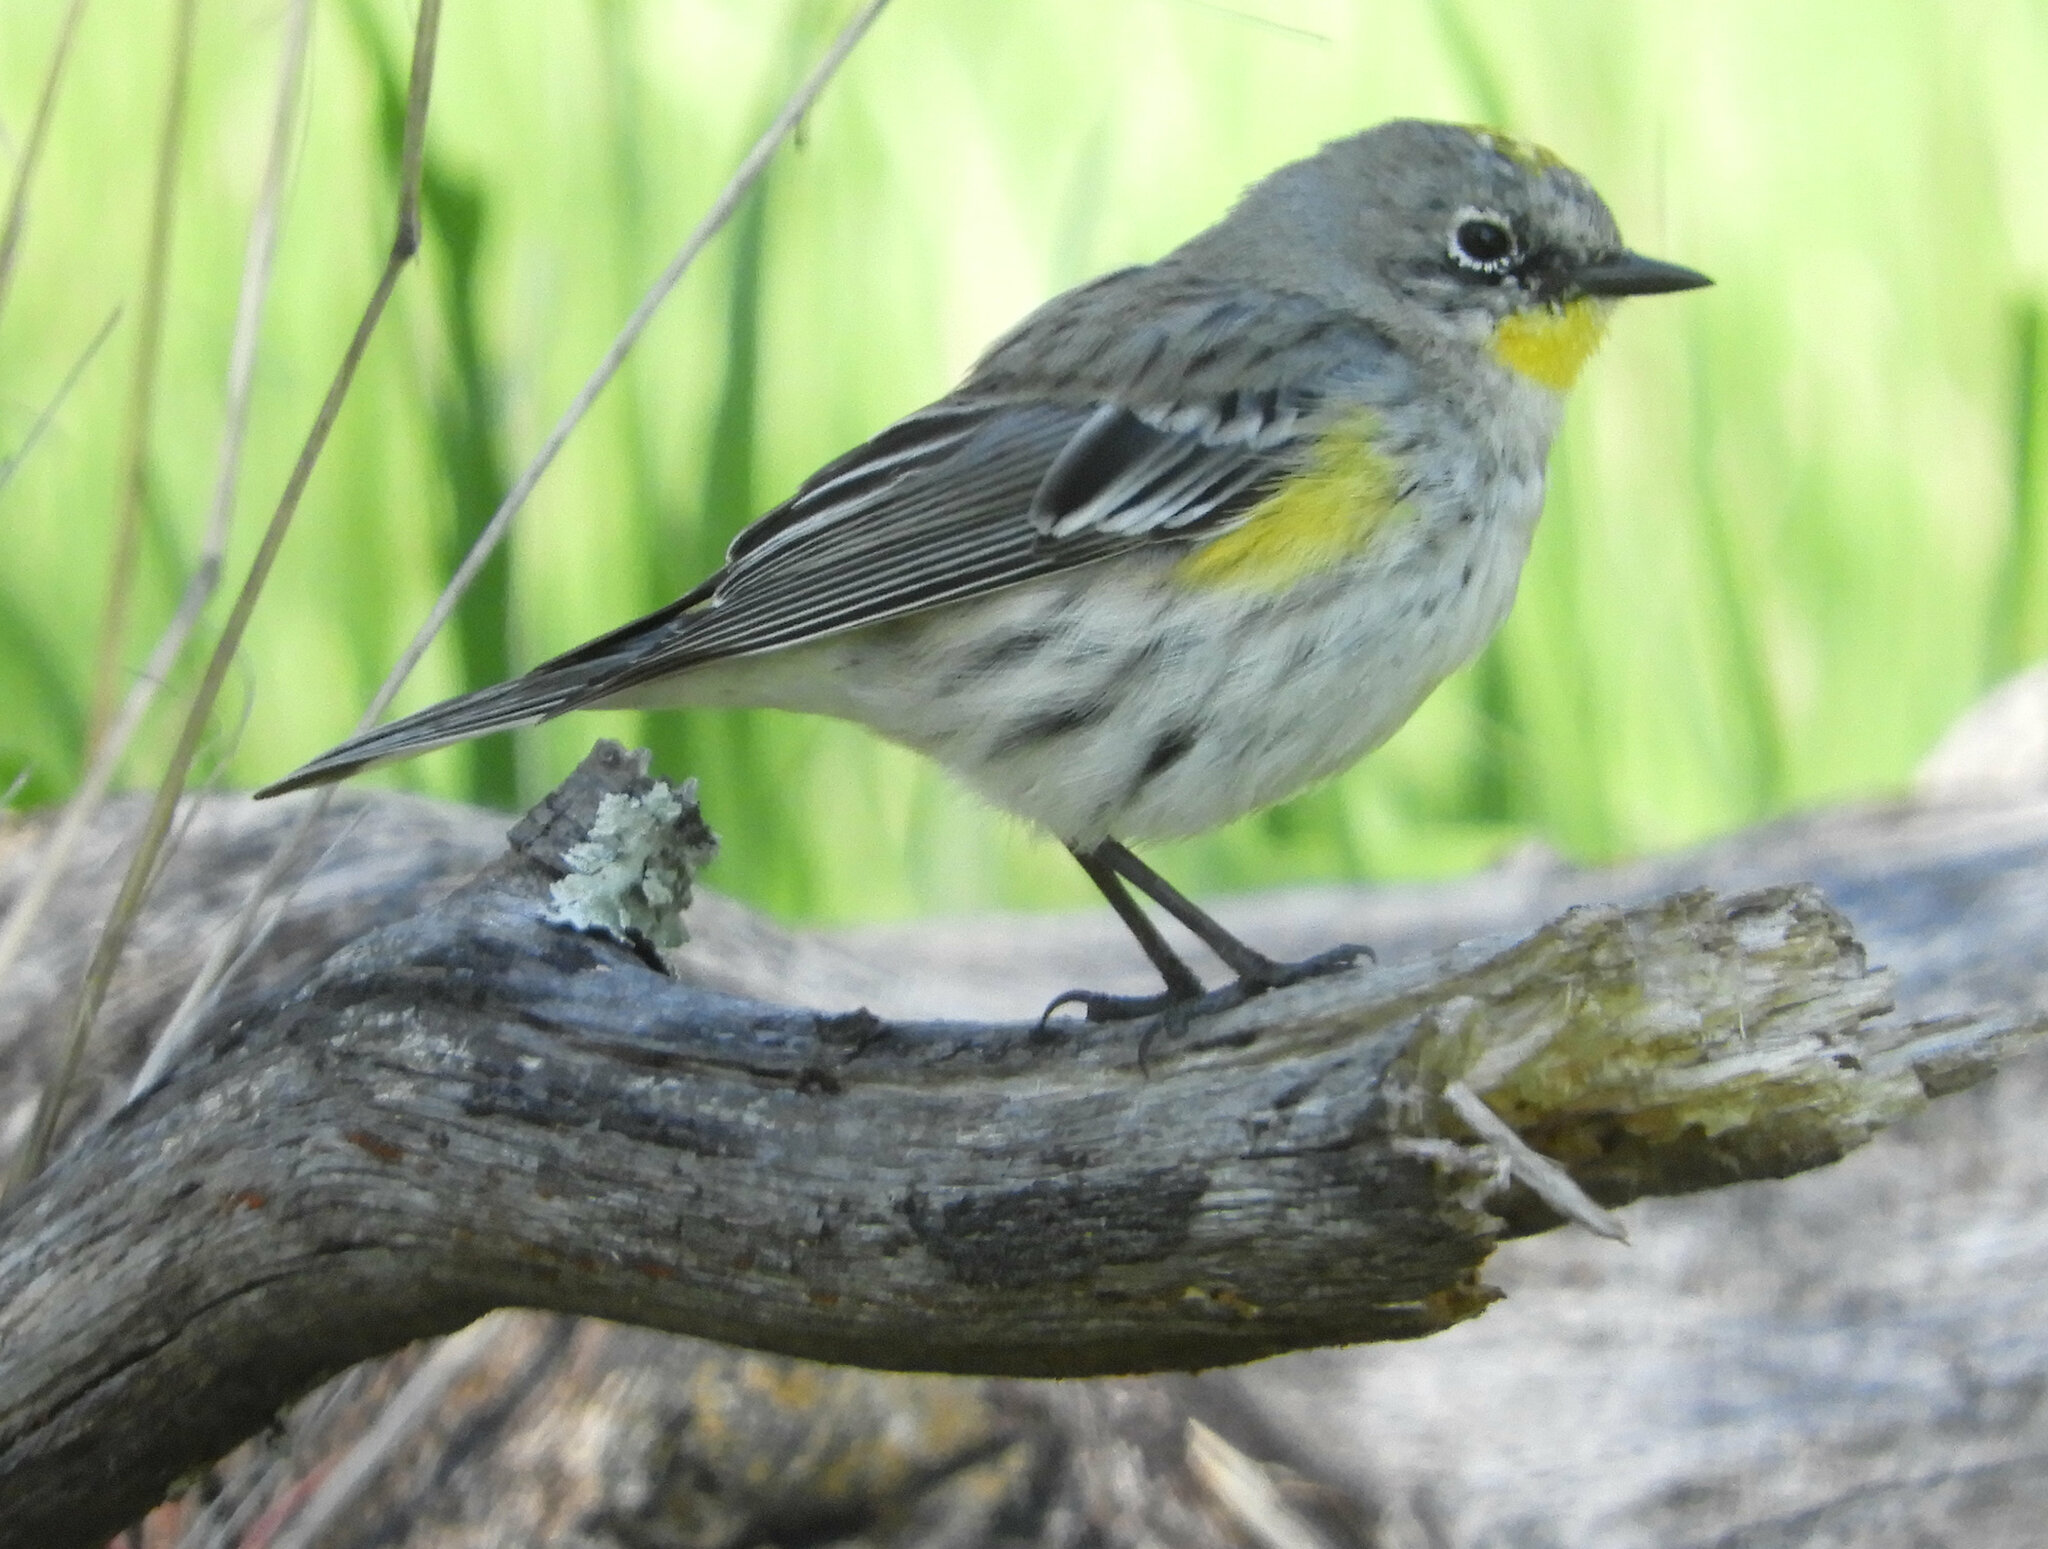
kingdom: Animalia
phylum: Chordata
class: Aves
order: Passeriformes
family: Parulidae
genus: Setophaga
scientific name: Setophaga auduboni
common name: Audubon's warbler
